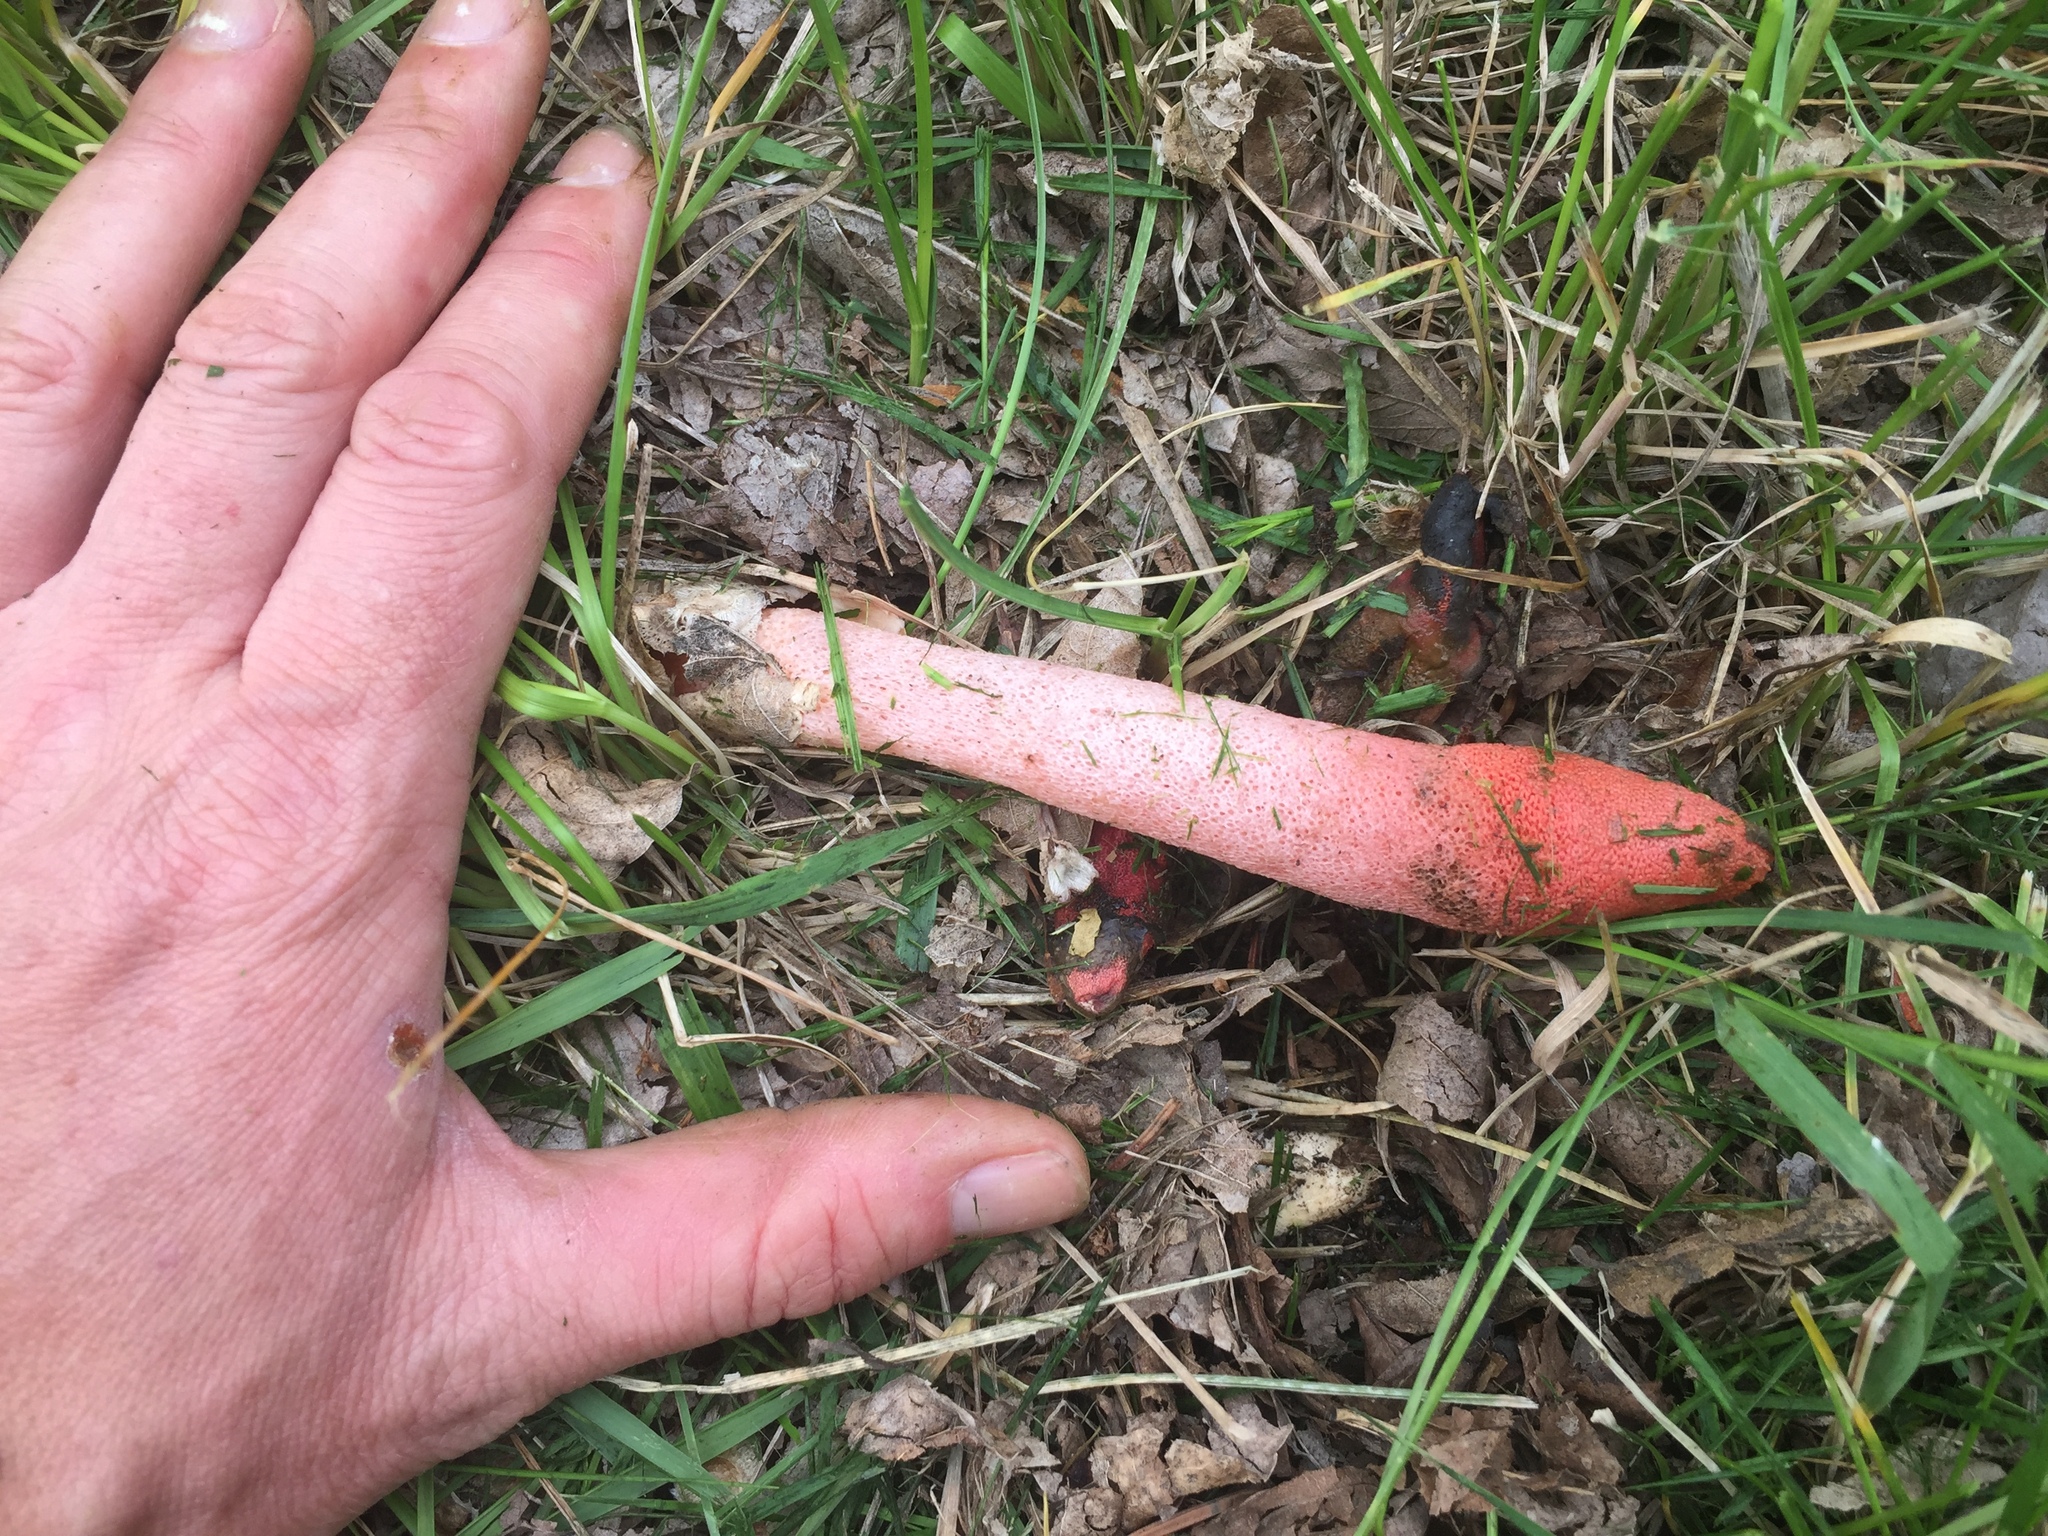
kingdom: Fungi
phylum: Basidiomycota
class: Agaricomycetes
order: Phallales
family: Phallaceae
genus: Mutinus
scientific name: Mutinus ravenelii
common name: Red stinkhorn
